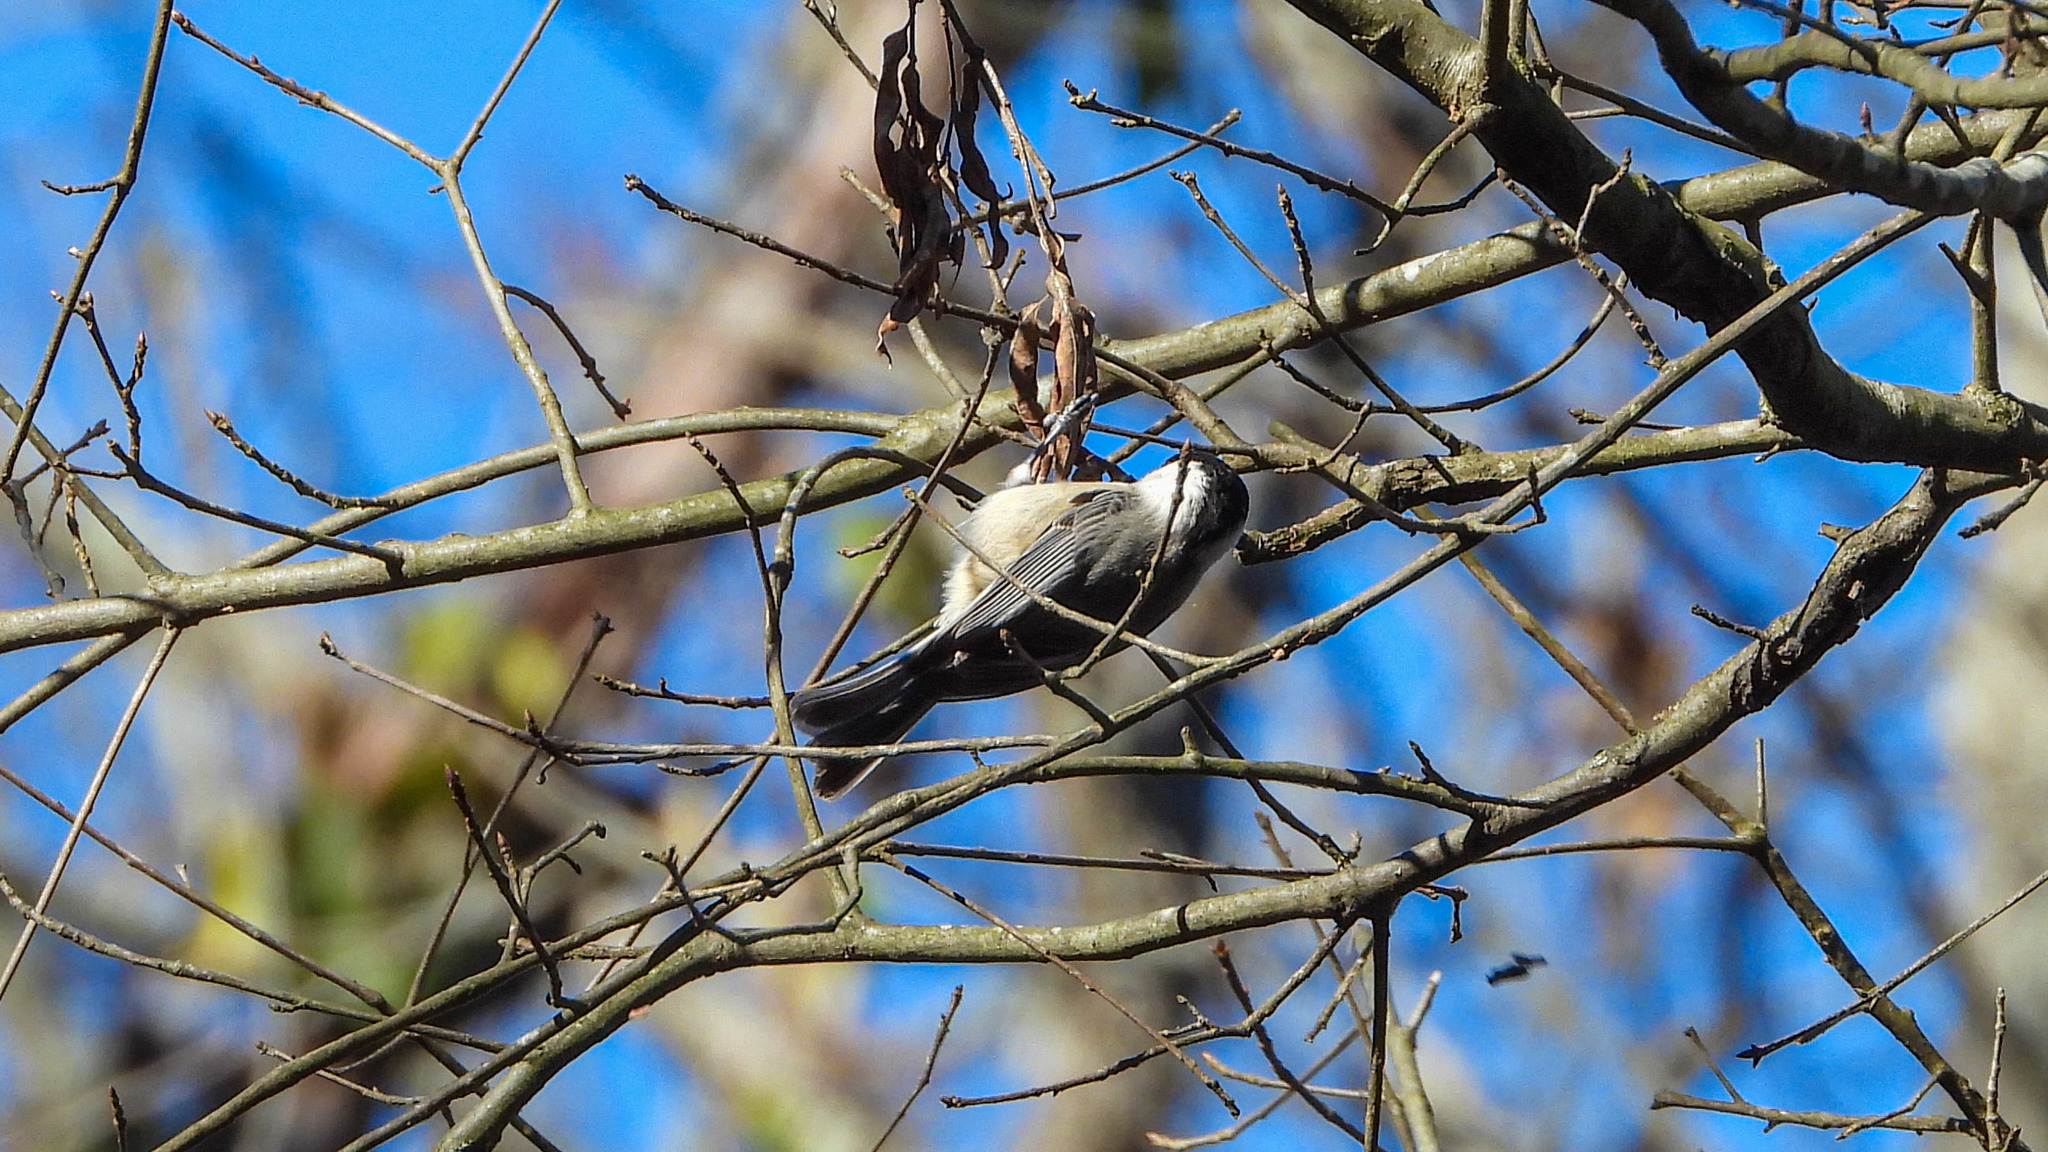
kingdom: Animalia
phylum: Chordata
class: Aves
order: Passeriformes
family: Paridae
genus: Poecile
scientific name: Poecile carolinensis
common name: Carolina chickadee
